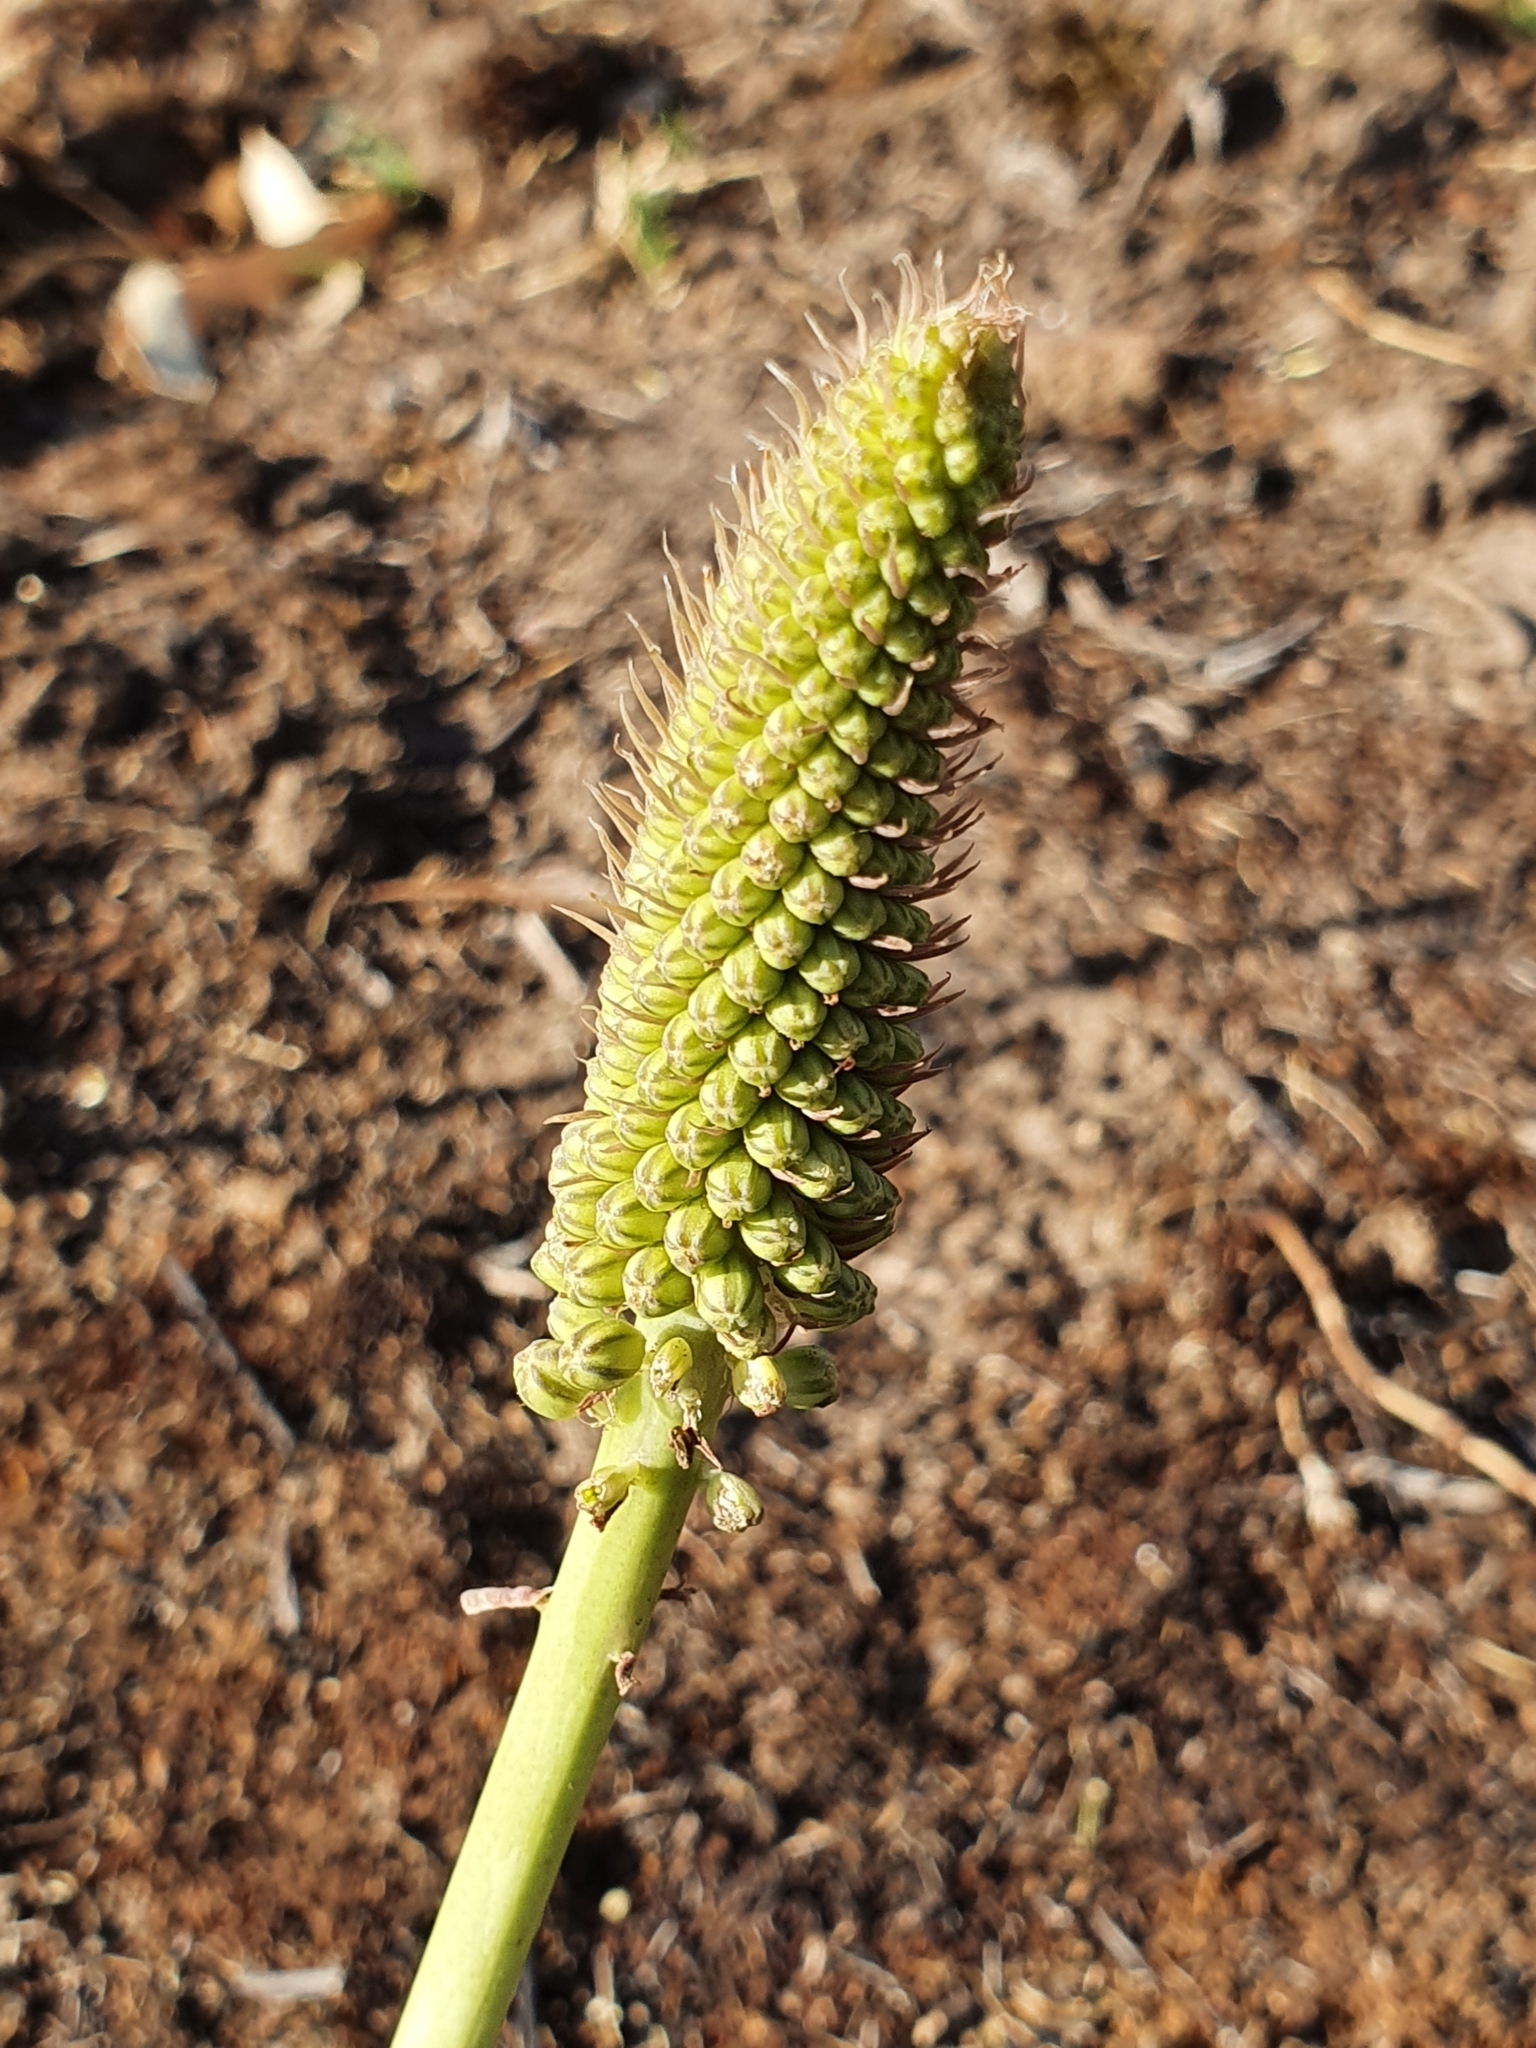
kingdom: Plantae
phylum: Tracheophyta
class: Liliopsida
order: Asparagales
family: Asparagaceae
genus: Drimia
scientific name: Drimia numidica
